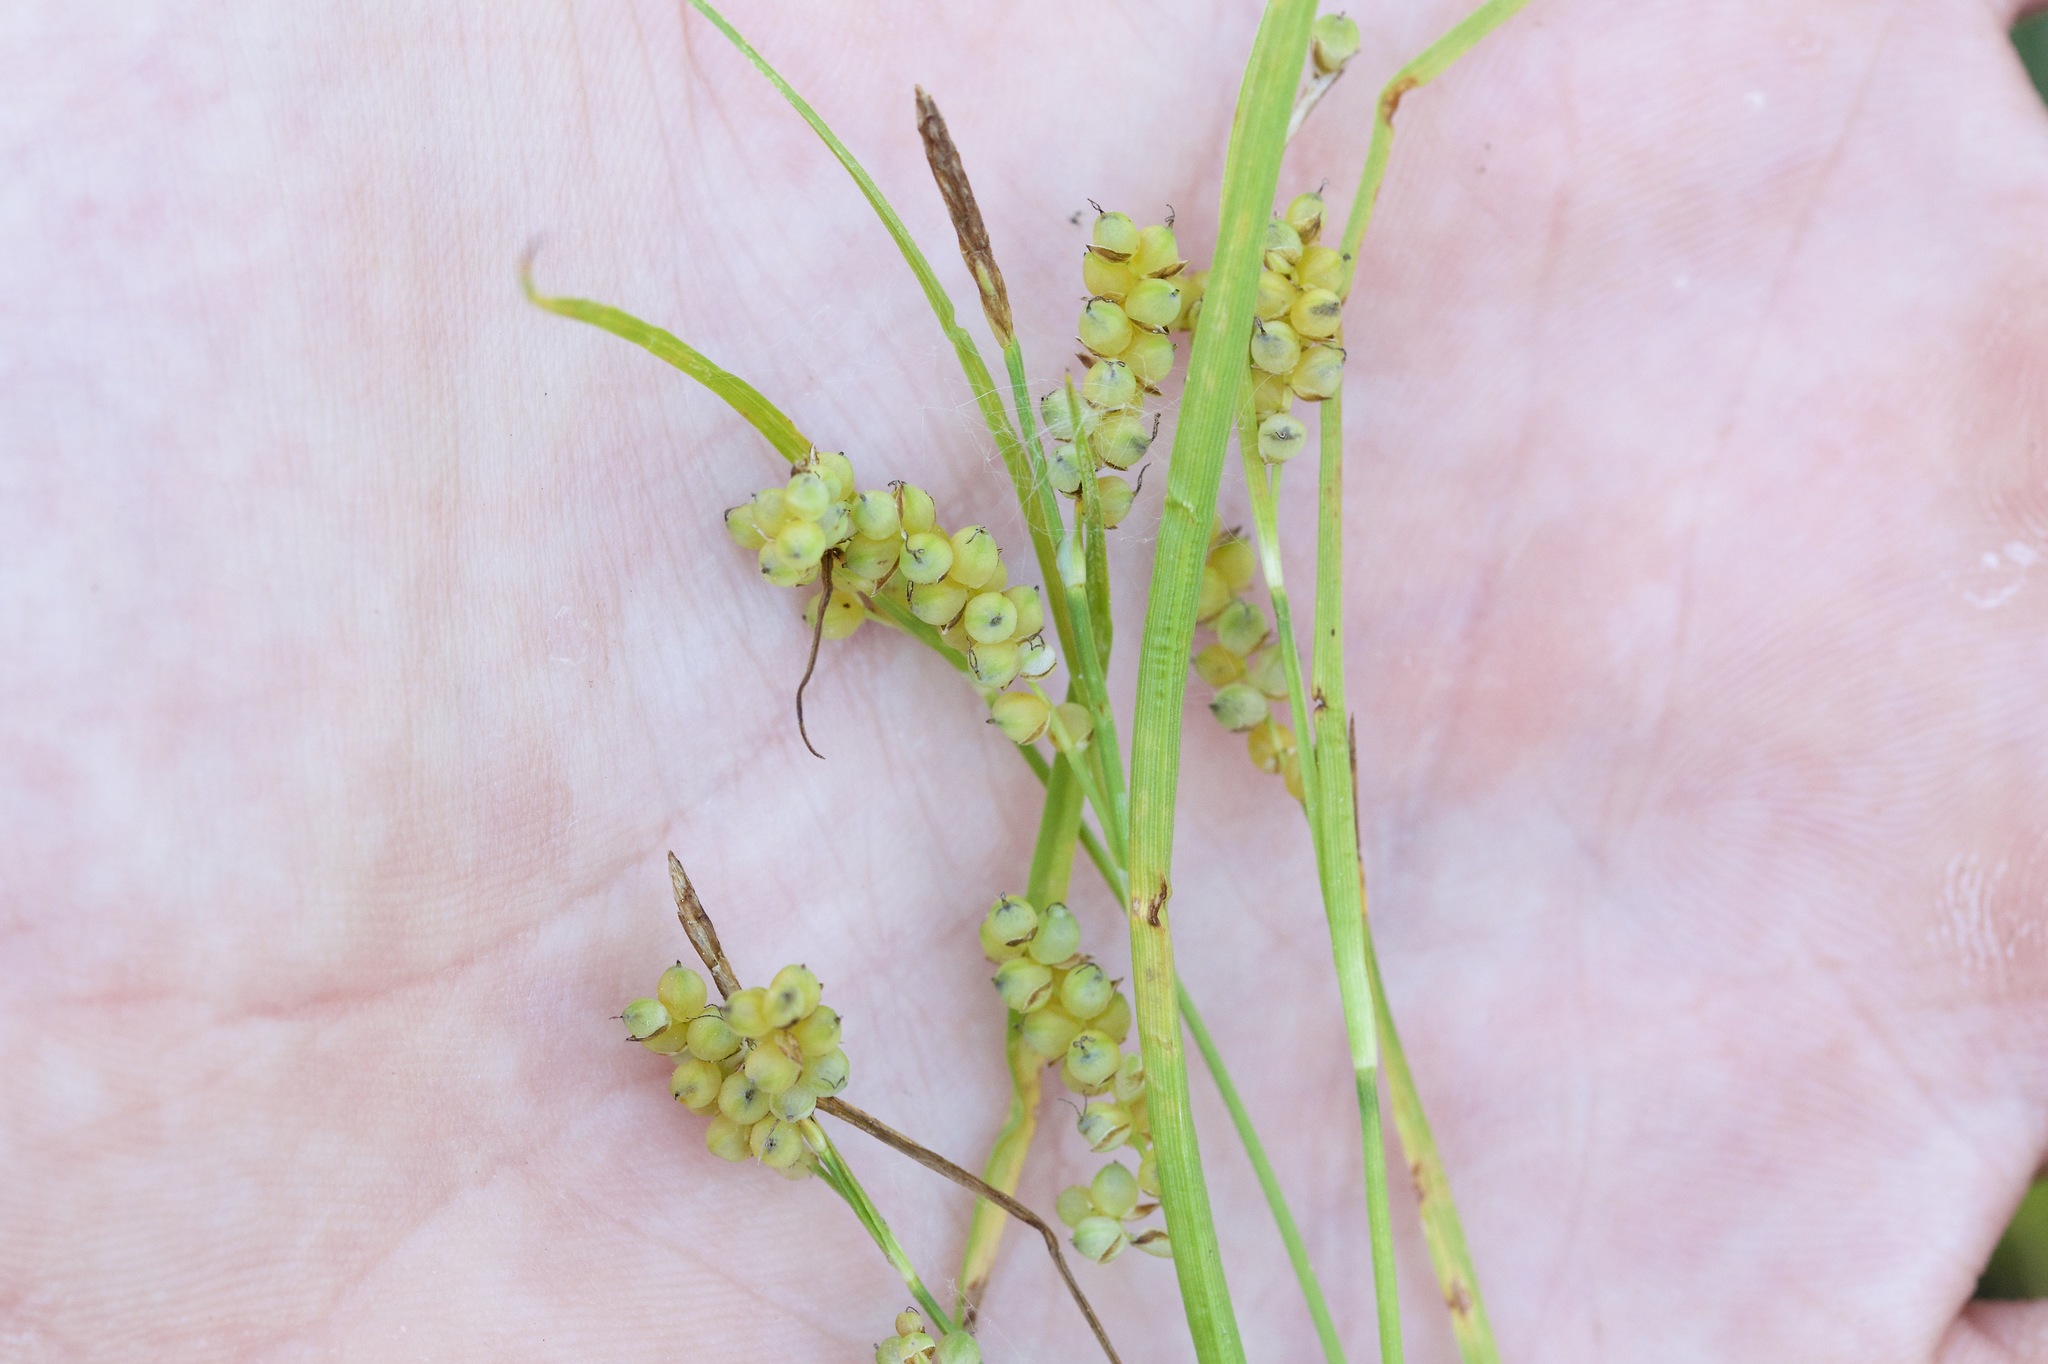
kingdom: Plantae
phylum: Tracheophyta
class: Liliopsida
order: Poales
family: Cyperaceae
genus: Carex
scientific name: Carex aurea
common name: Golden sedge
